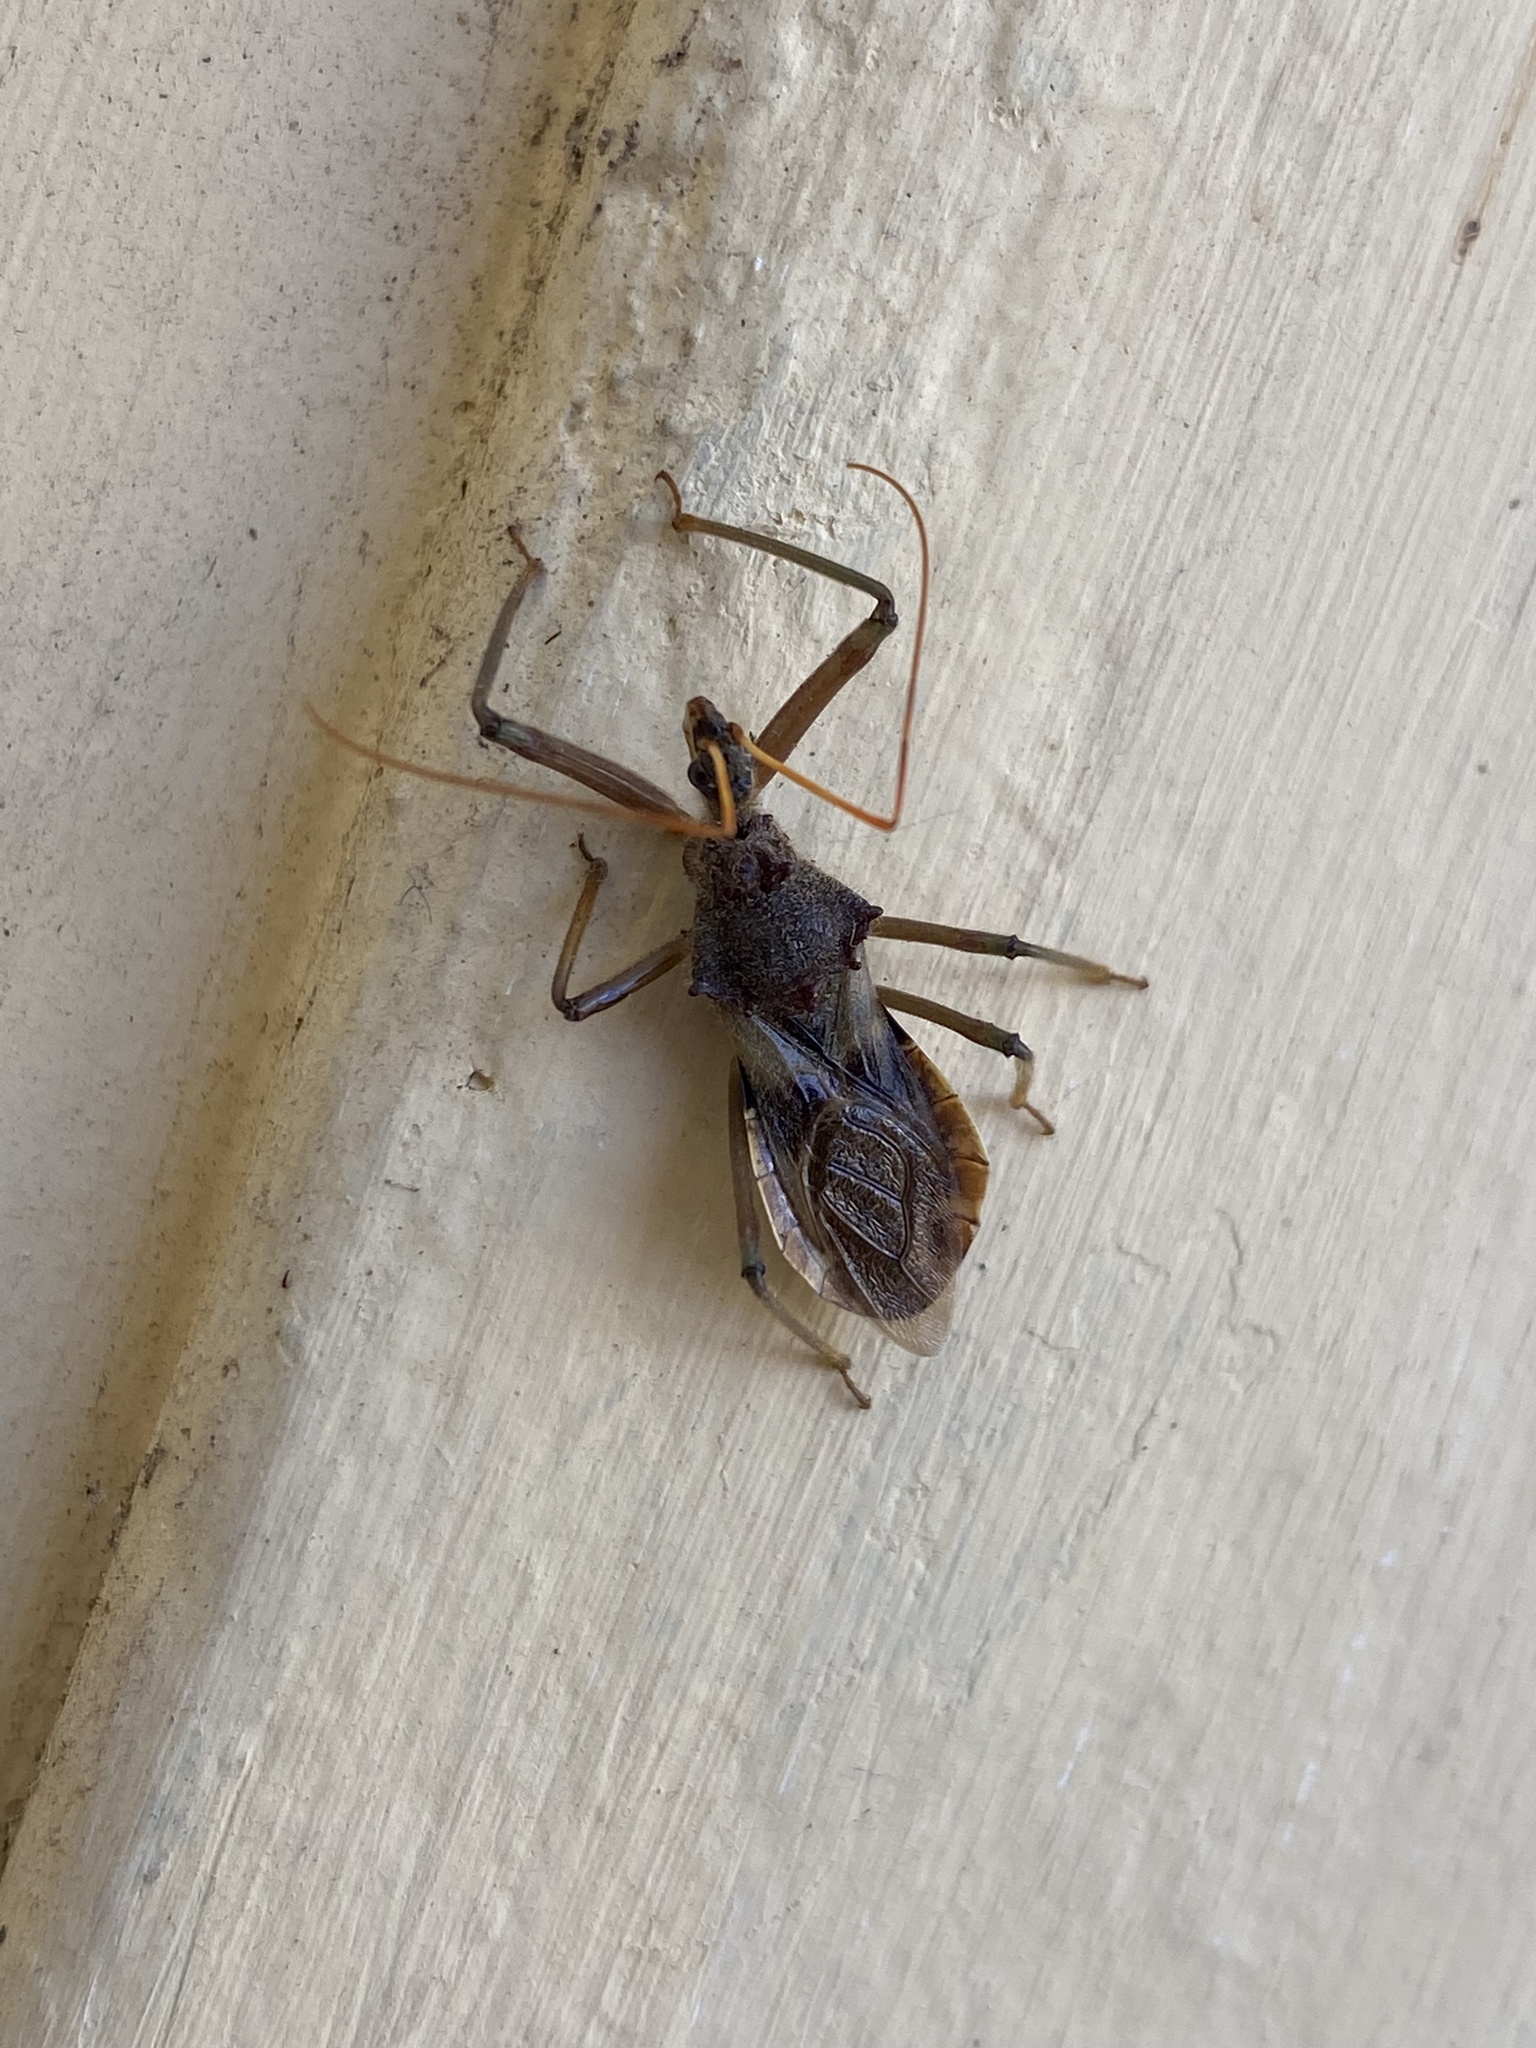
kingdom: Animalia
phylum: Arthropoda
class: Insecta
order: Hemiptera
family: Reduviidae
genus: Pristhesancus
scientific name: Pristhesancus plagipennis
